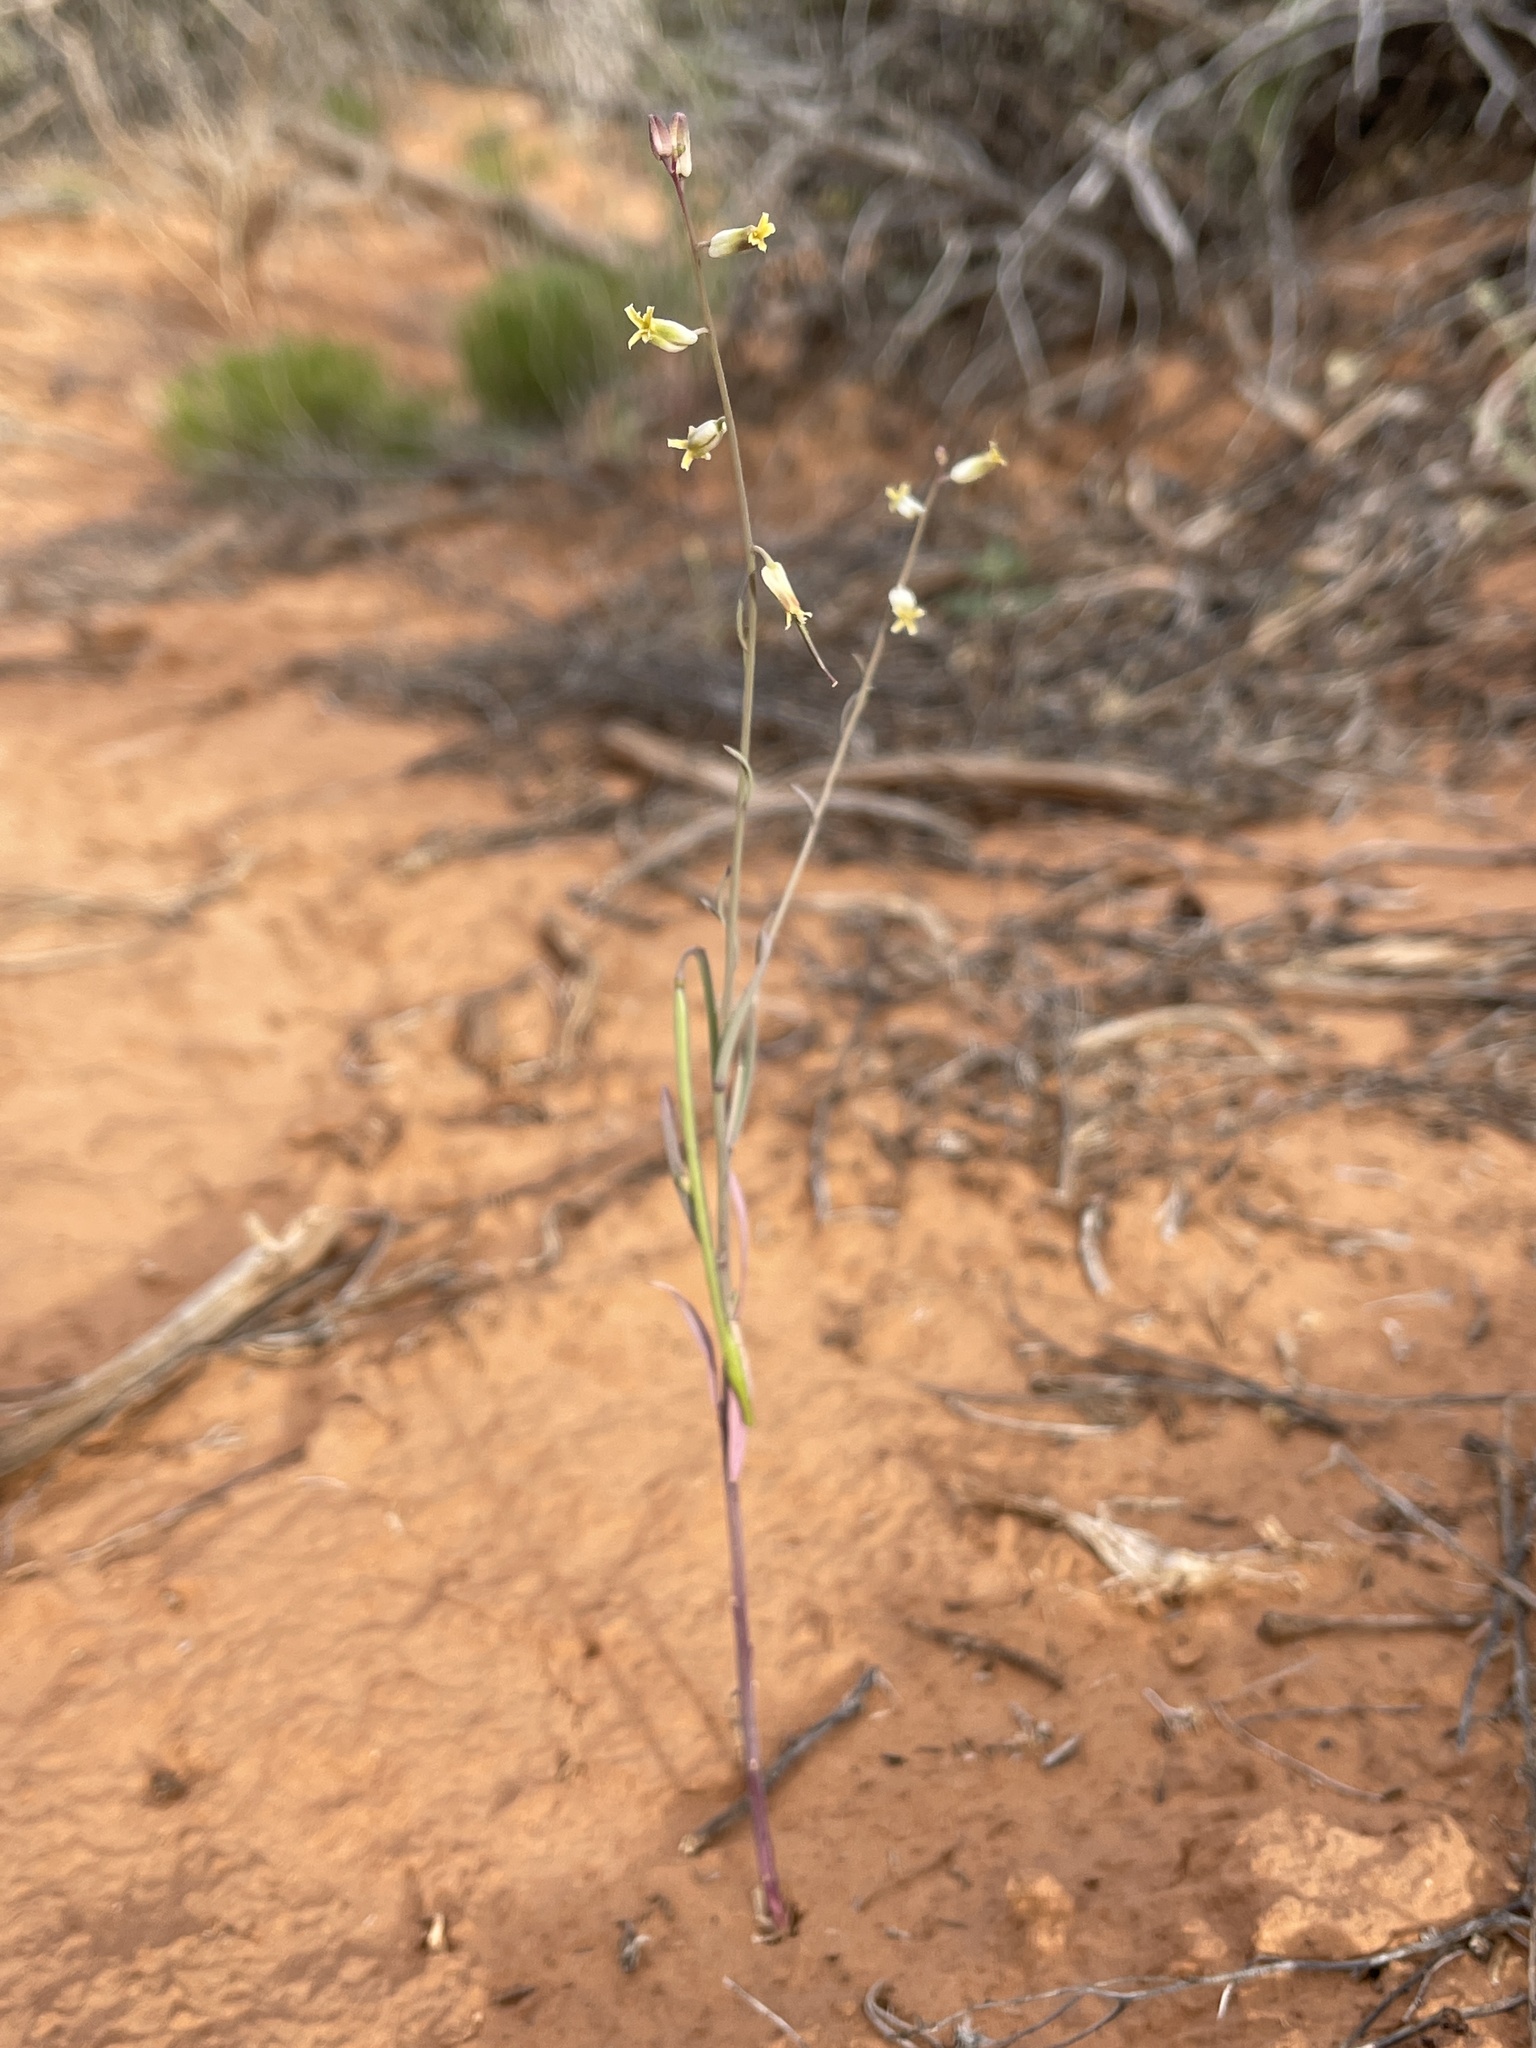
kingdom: Plantae
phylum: Tracheophyta
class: Magnoliopsida
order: Brassicales
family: Brassicaceae
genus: Streptanthus
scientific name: Streptanthus longirostris
